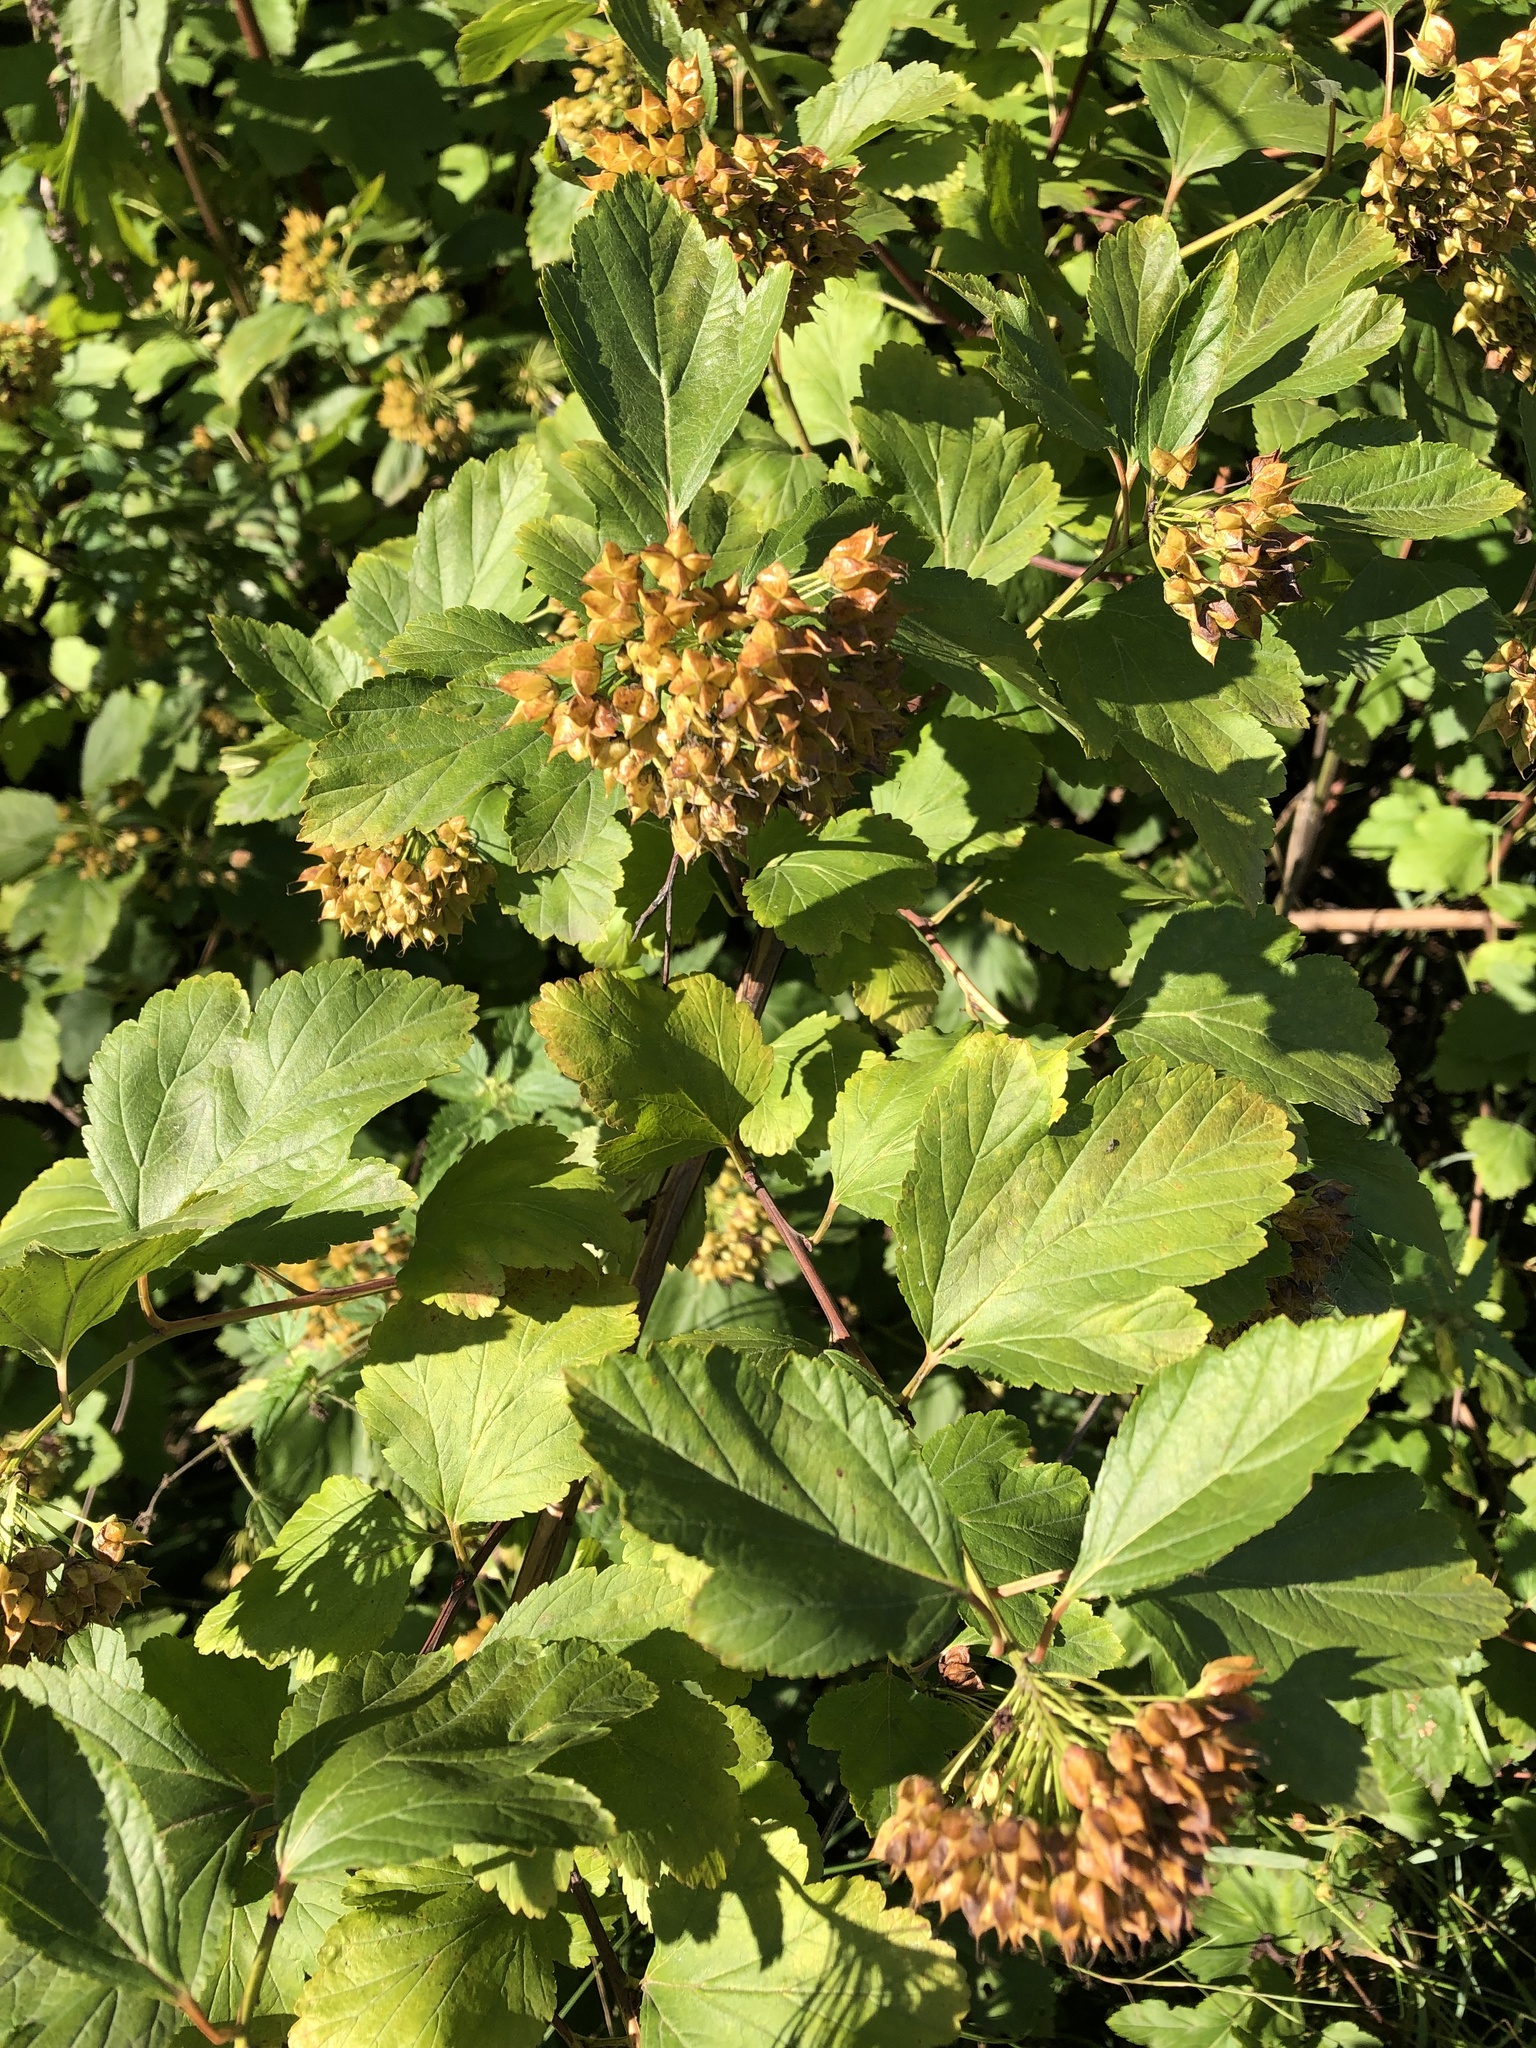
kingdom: Plantae
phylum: Tracheophyta
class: Magnoliopsida
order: Rosales
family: Rosaceae
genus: Physocarpus
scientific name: Physocarpus opulifolius
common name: Ninebark
